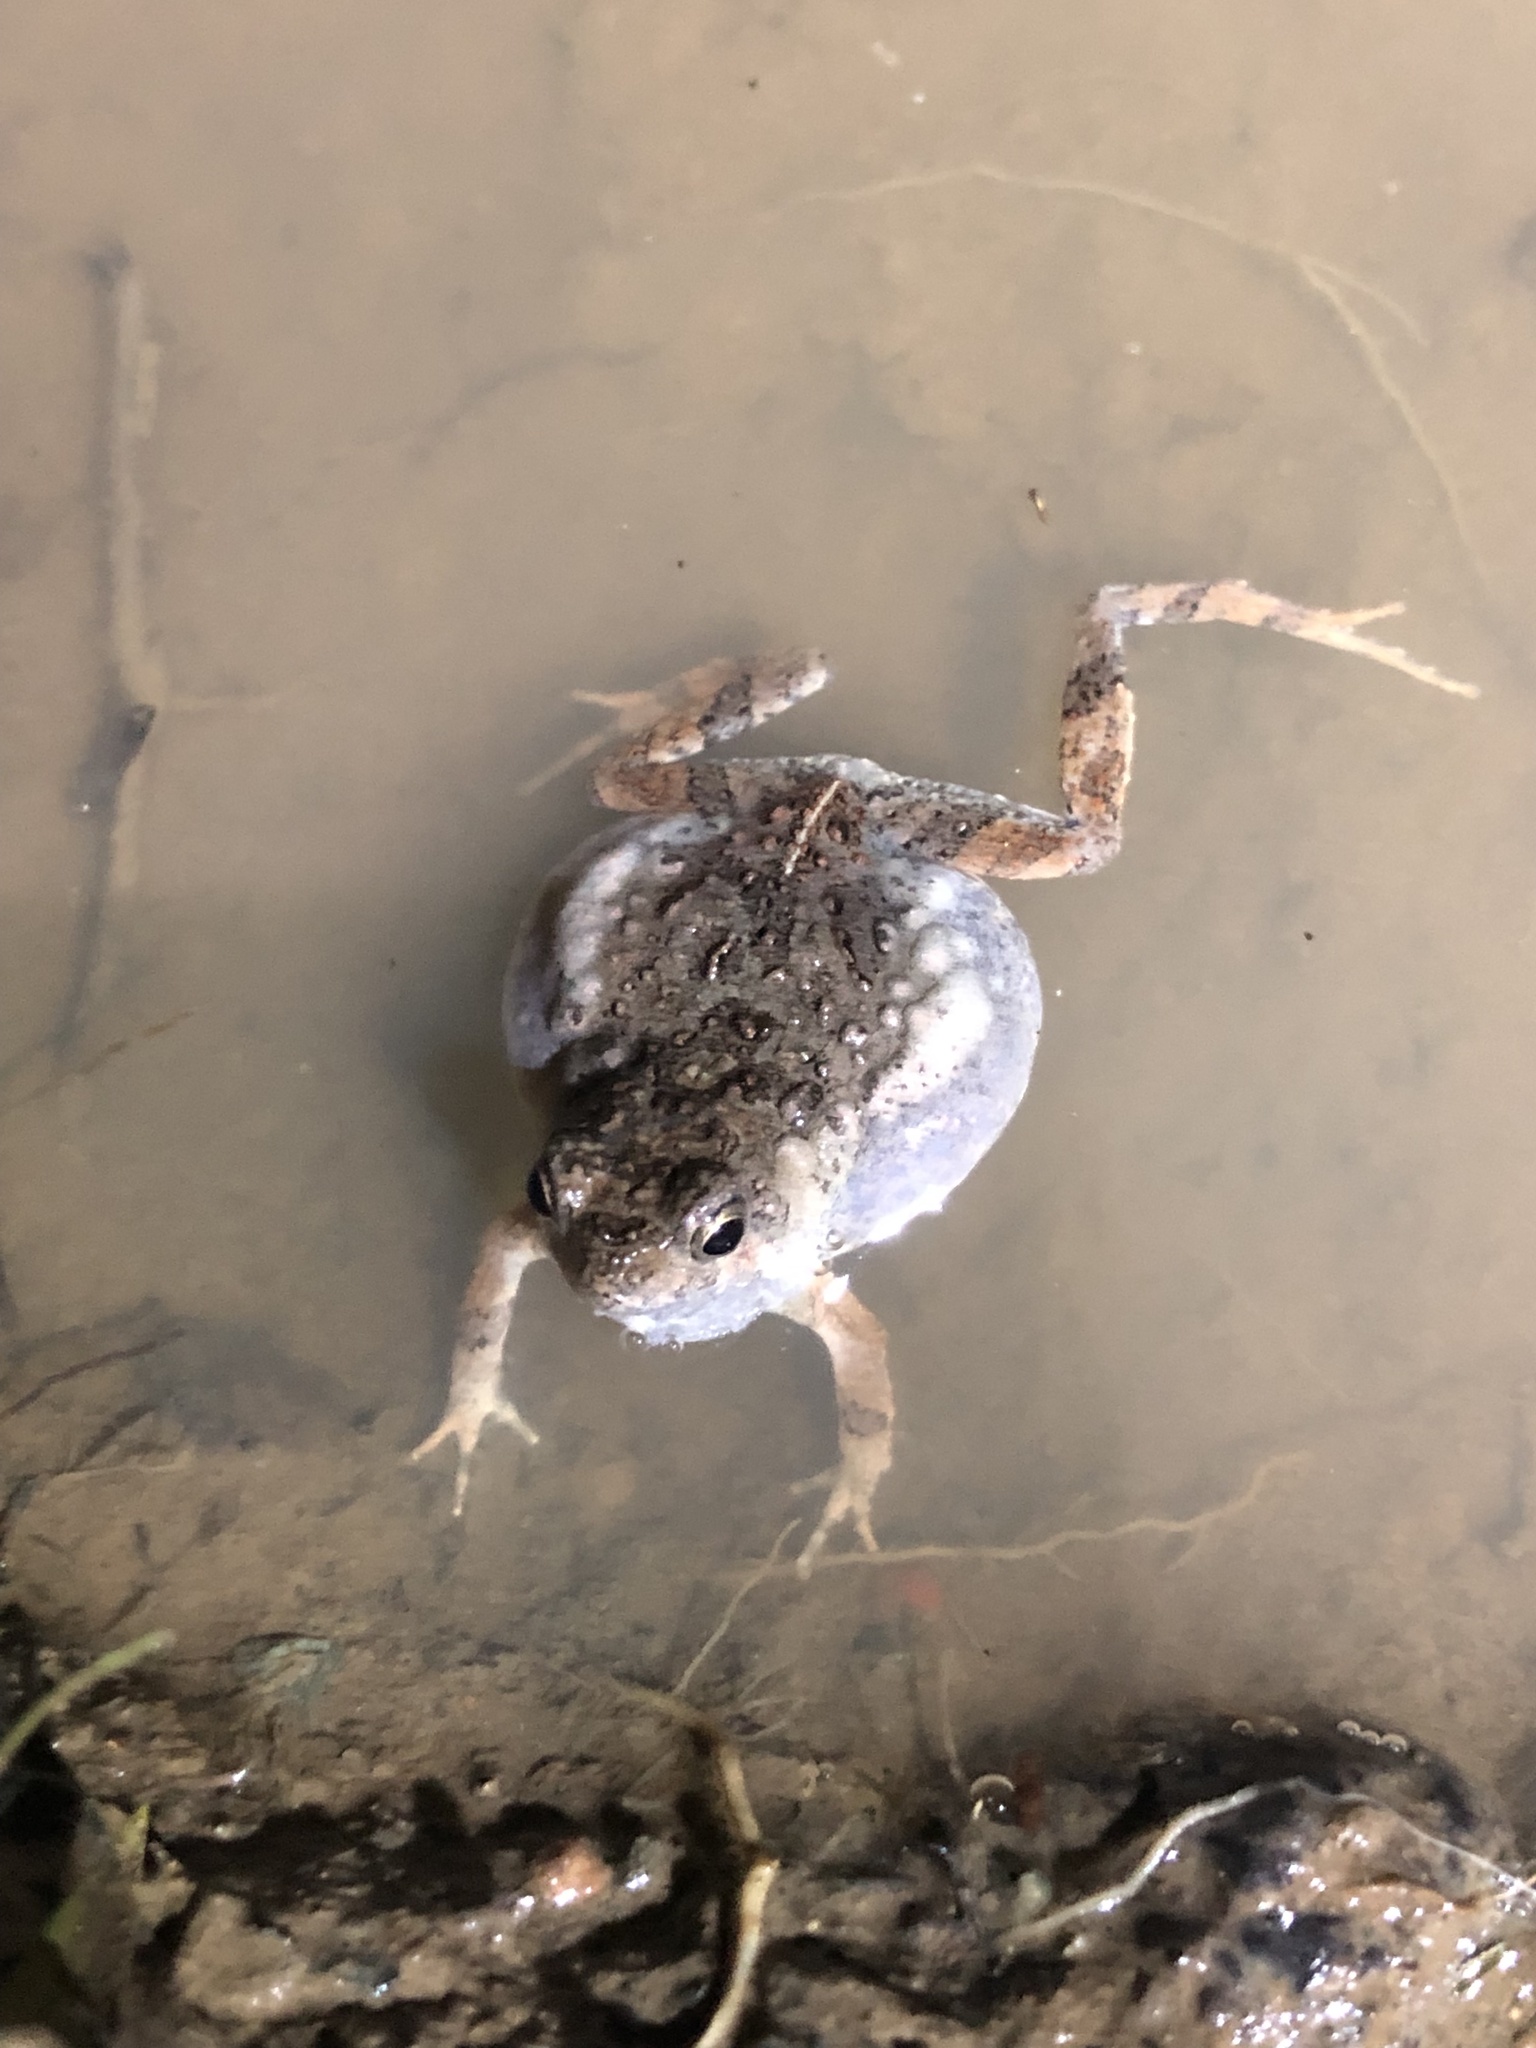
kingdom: Animalia
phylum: Chordata
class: Amphibia
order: Anura
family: Leptodactylidae
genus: Engystomops
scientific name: Engystomops pustulosus
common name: Tungara frog
